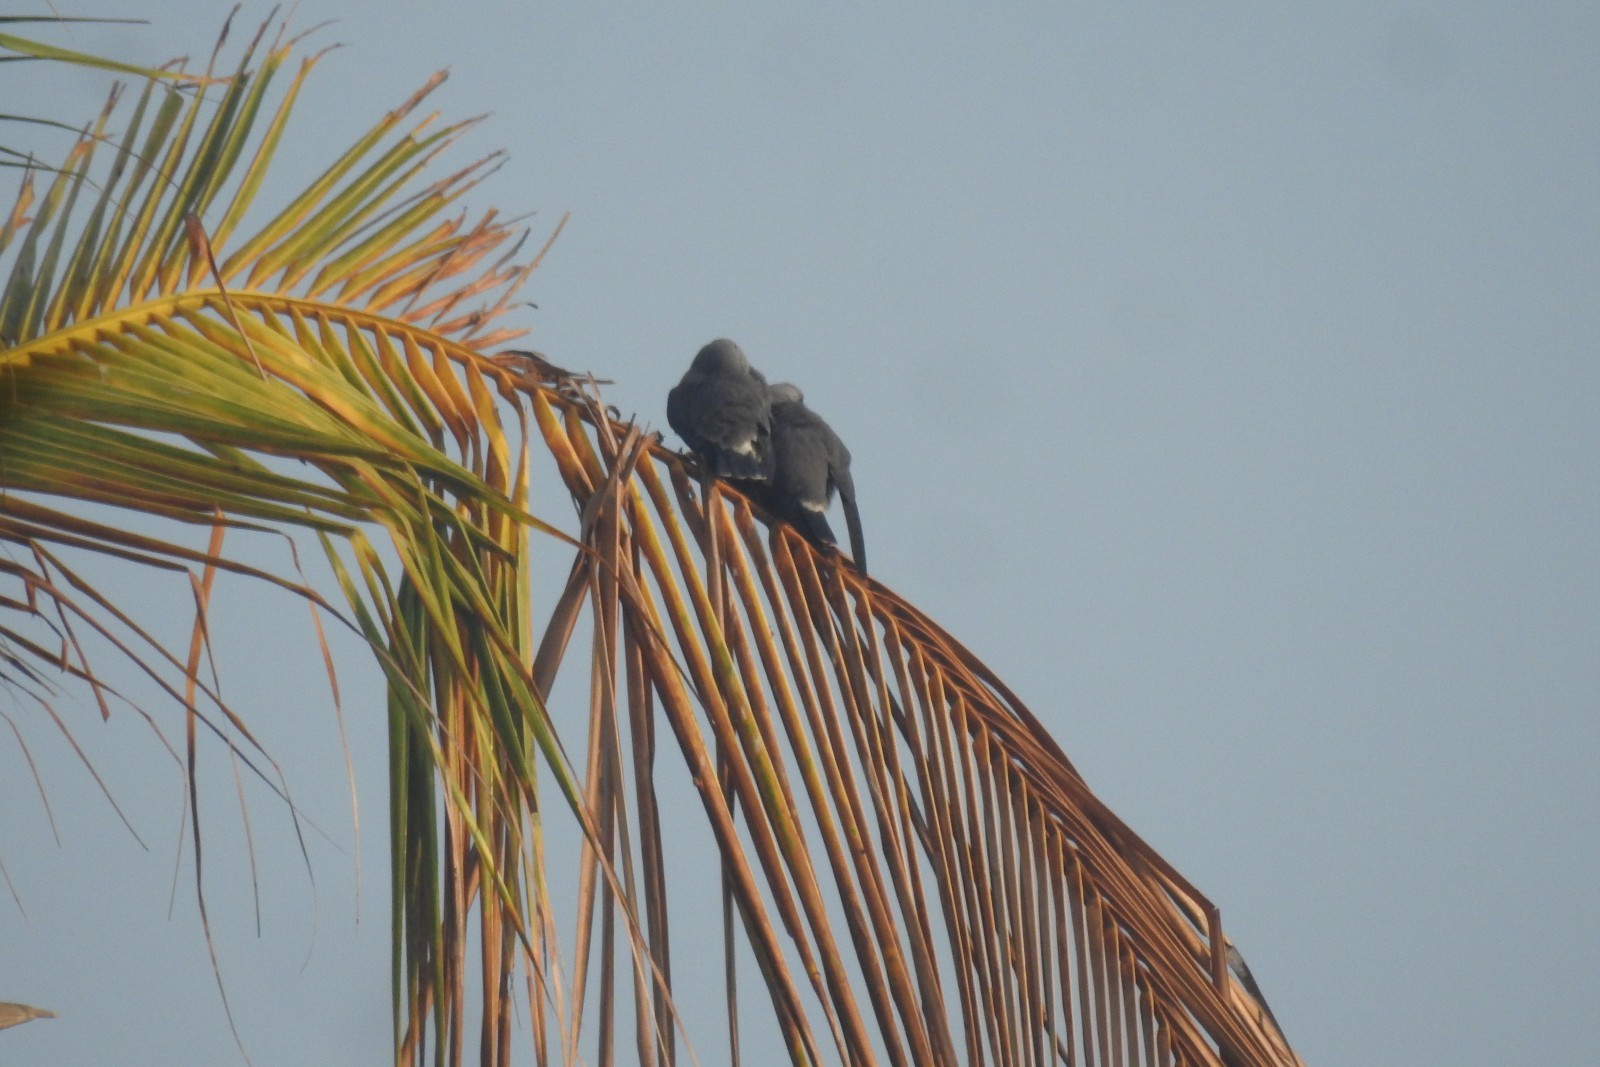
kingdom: Animalia
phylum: Chordata
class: Aves
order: Passeriformes
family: Artamidae
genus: Artamus
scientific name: Artamus fuscus
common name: Ashy woodswallow
